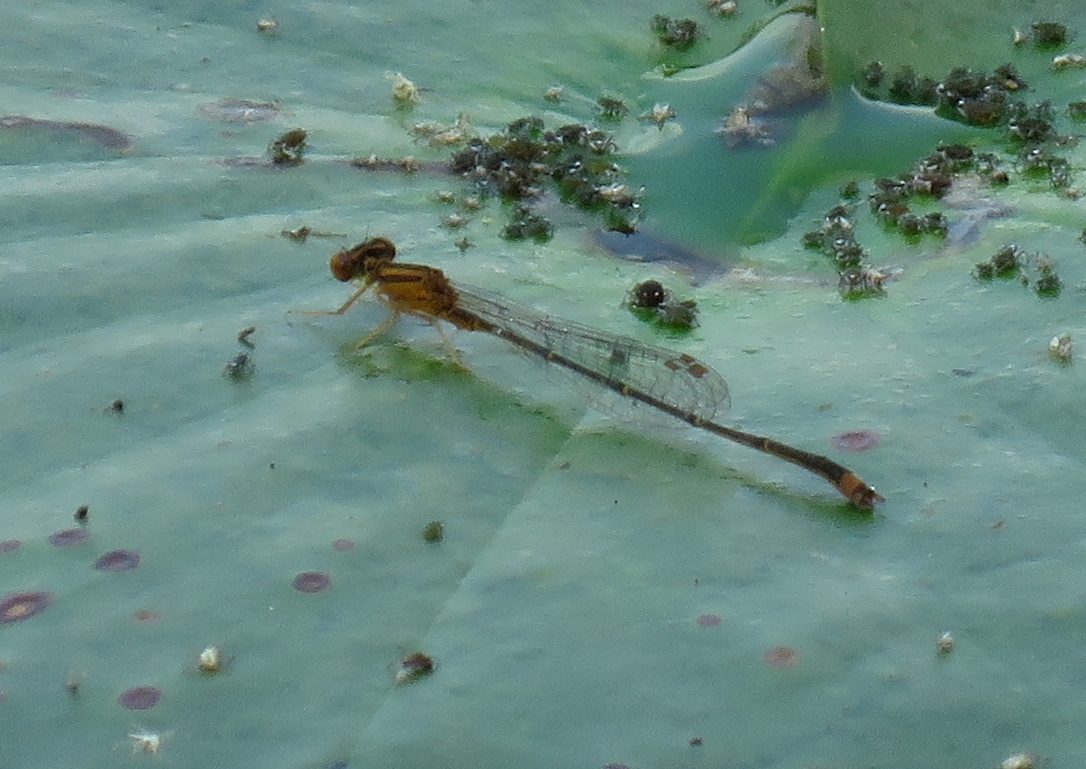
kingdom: Animalia
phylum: Arthropoda
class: Insecta
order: Odonata
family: Coenagrionidae
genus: Enallagma
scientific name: Enallagma signatum
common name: Orange bluet
